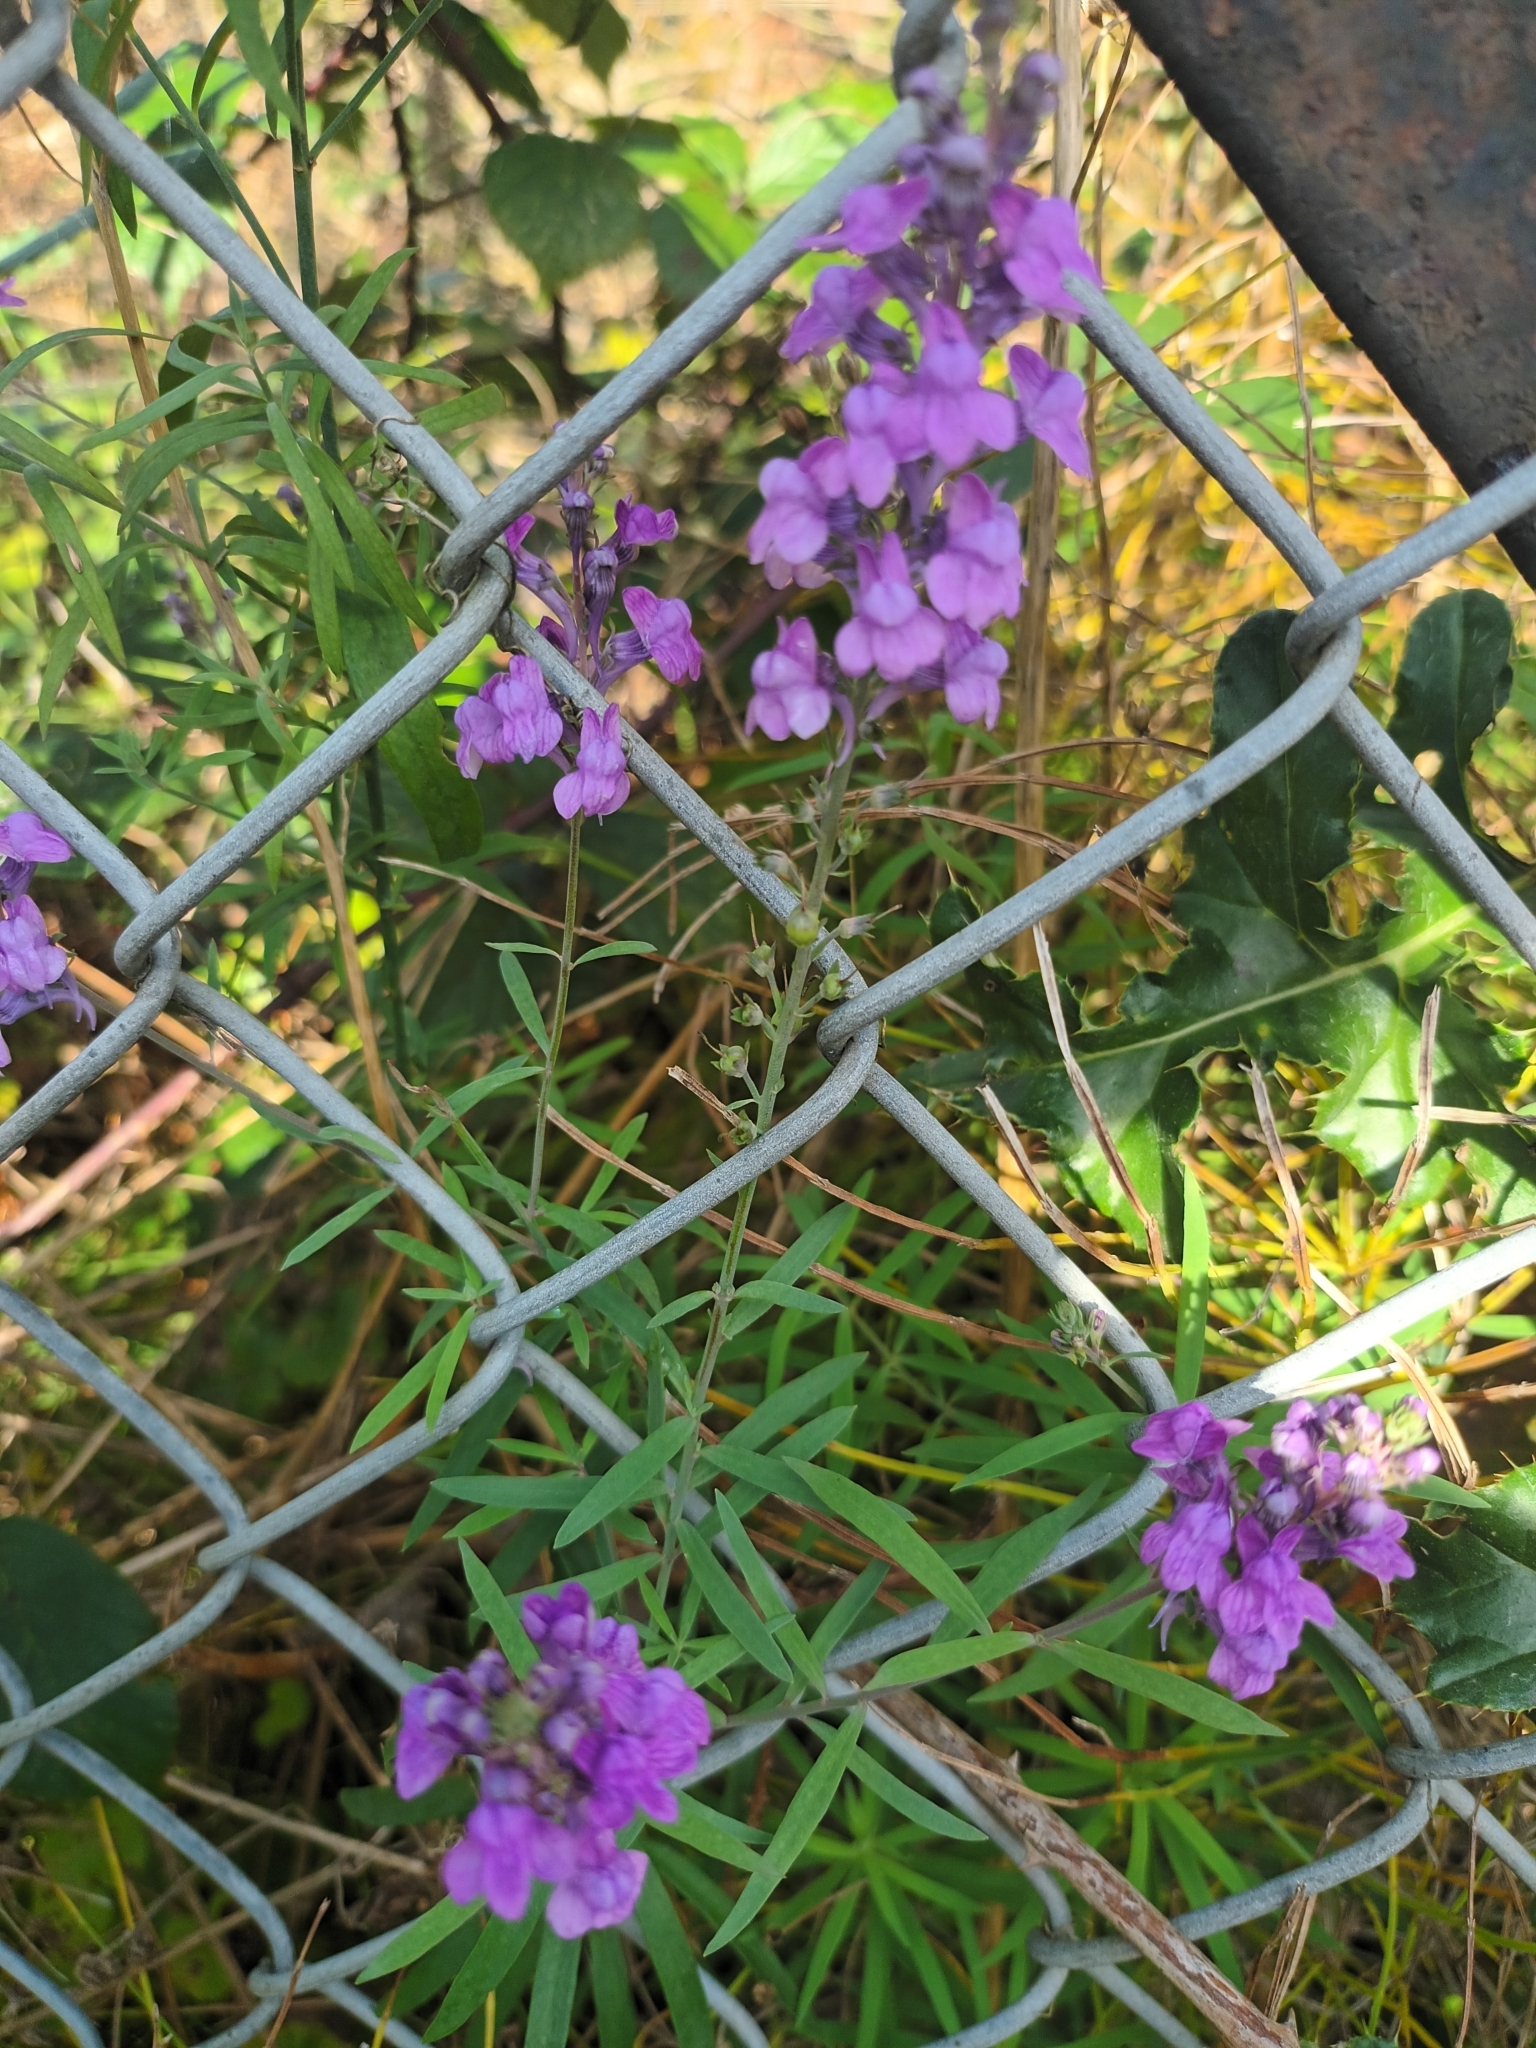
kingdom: Plantae
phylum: Tracheophyta
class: Magnoliopsida
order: Lamiales
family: Plantaginaceae
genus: Linaria
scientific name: Linaria purpurea
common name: Purple toadflax
